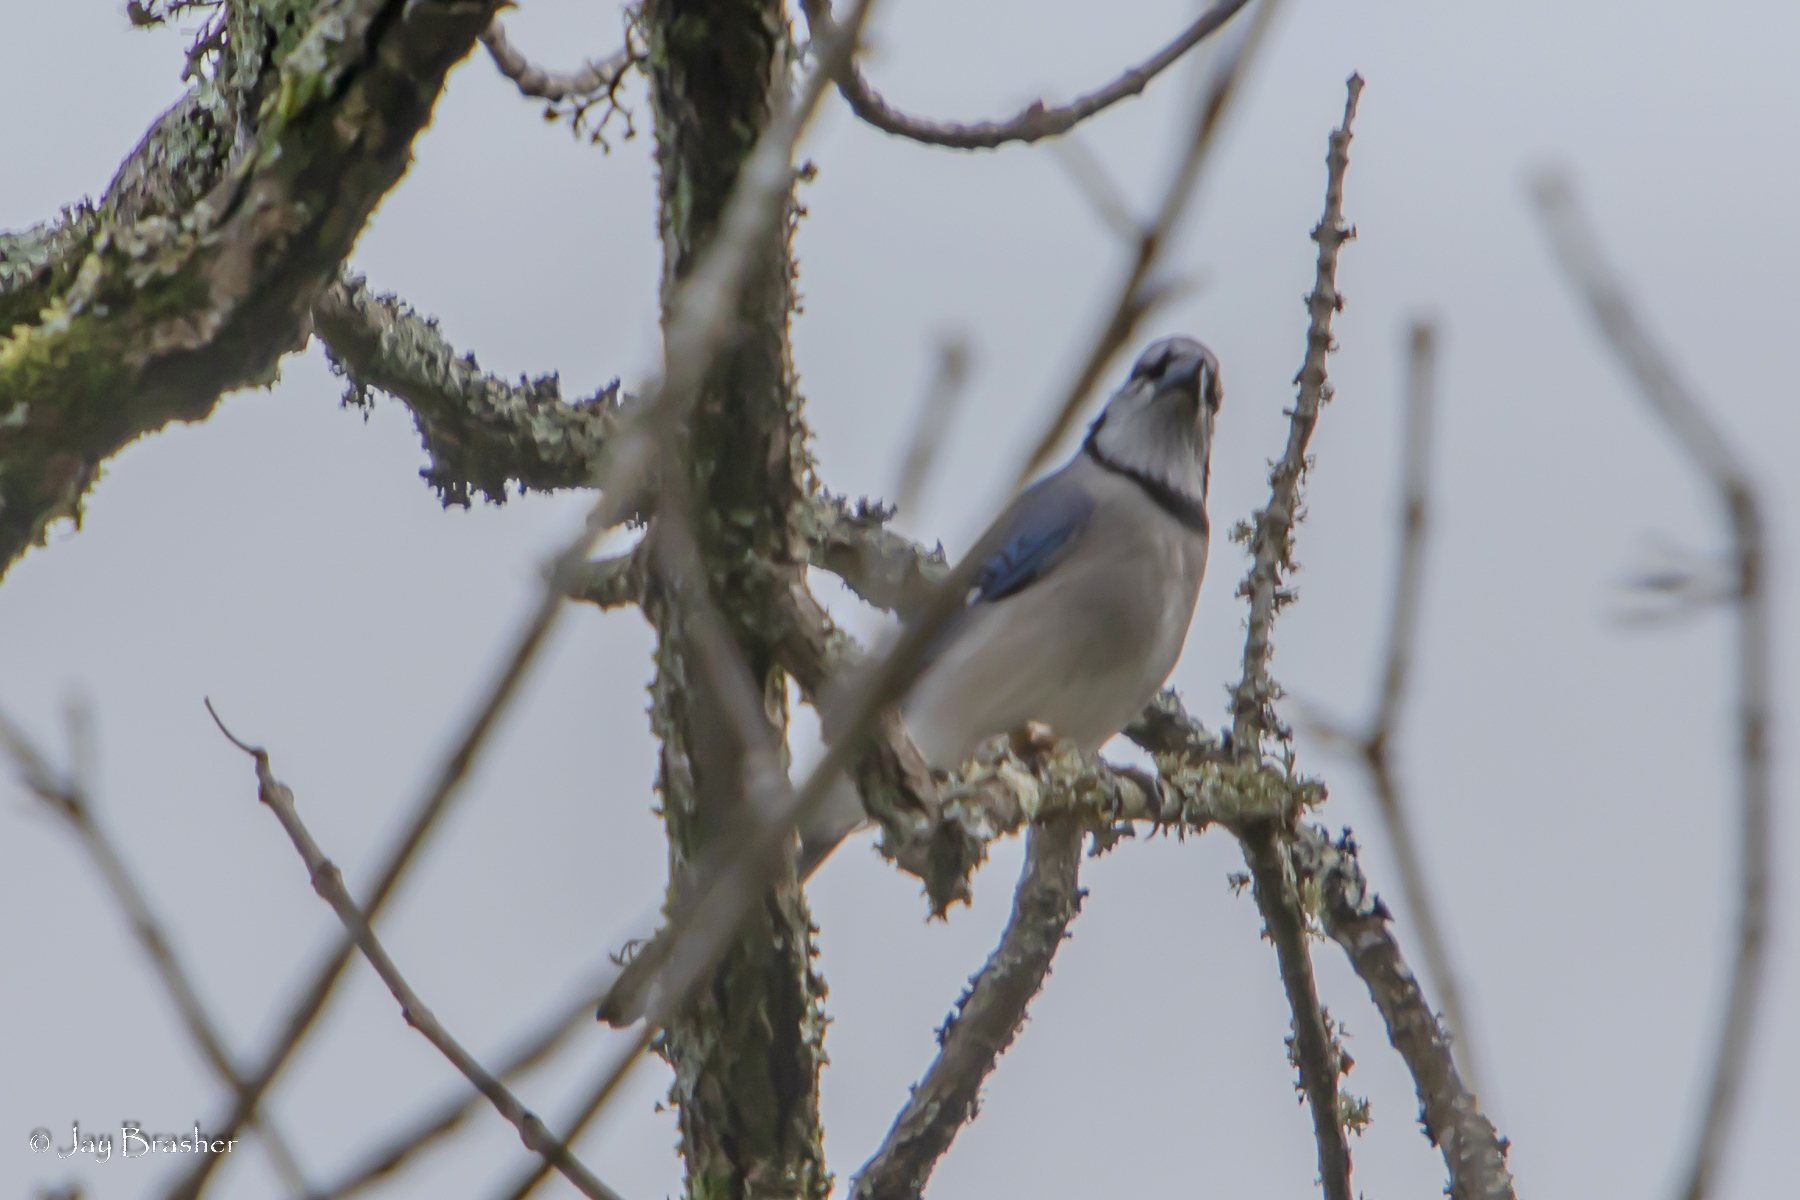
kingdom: Animalia
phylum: Chordata
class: Aves
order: Passeriformes
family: Corvidae
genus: Cyanocitta
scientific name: Cyanocitta cristata
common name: Blue jay
